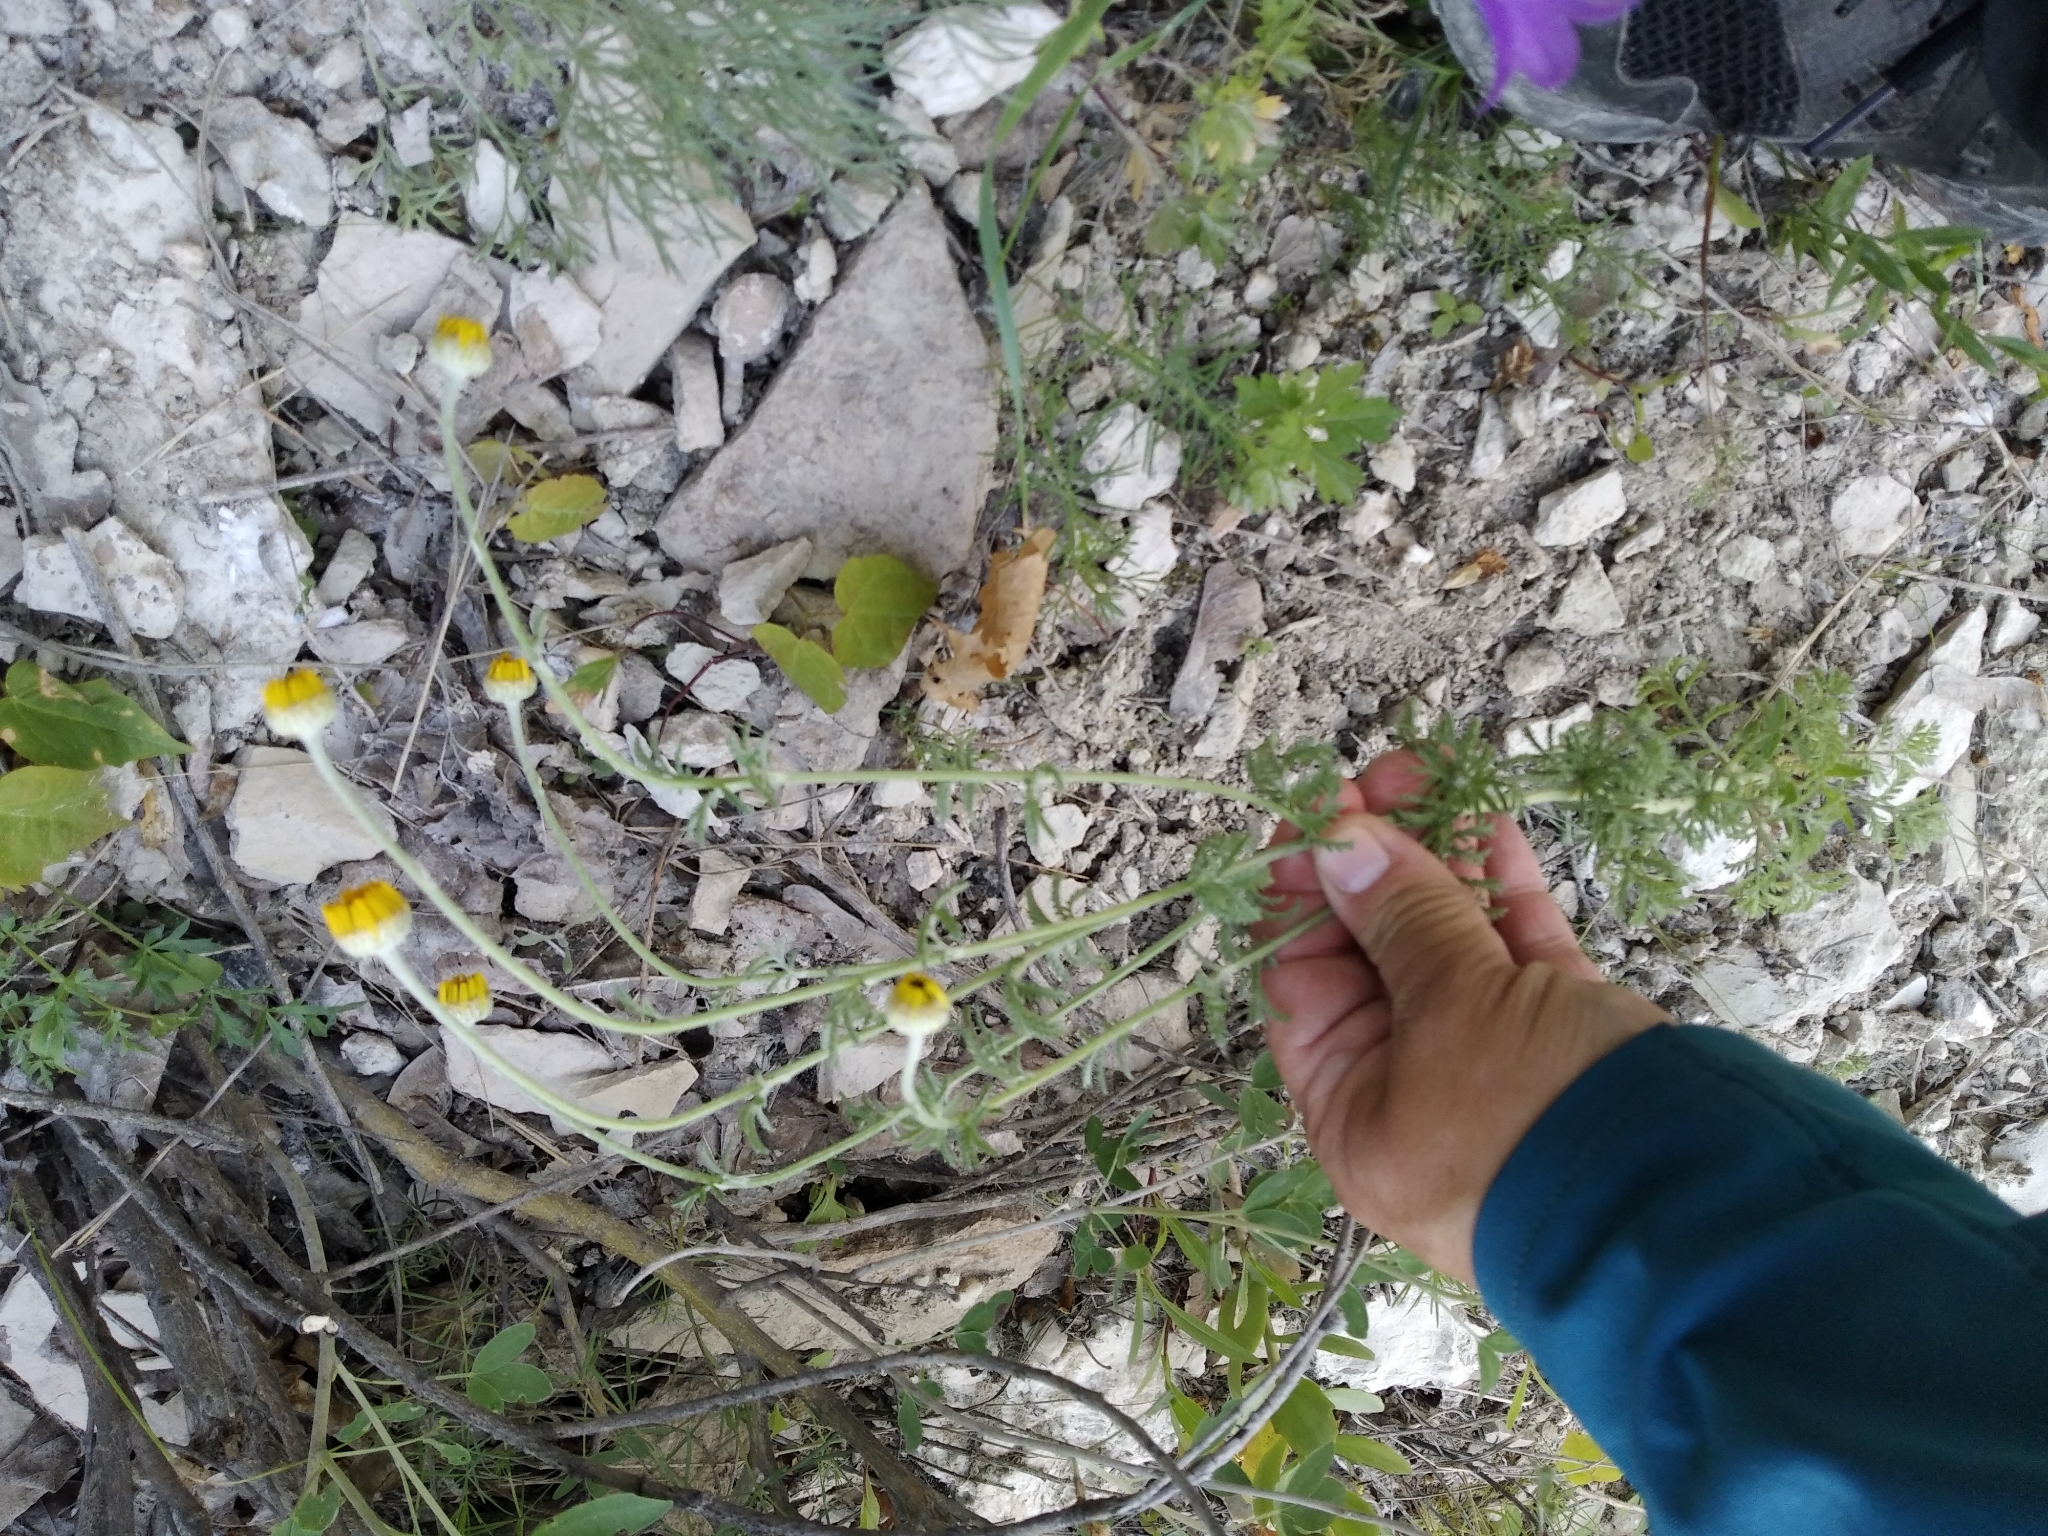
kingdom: Plantae
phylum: Tracheophyta
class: Magnoliopsida
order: Asterales
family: Asteraceae
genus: Cota
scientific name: Cota tinctoria
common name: Golden chamomile
